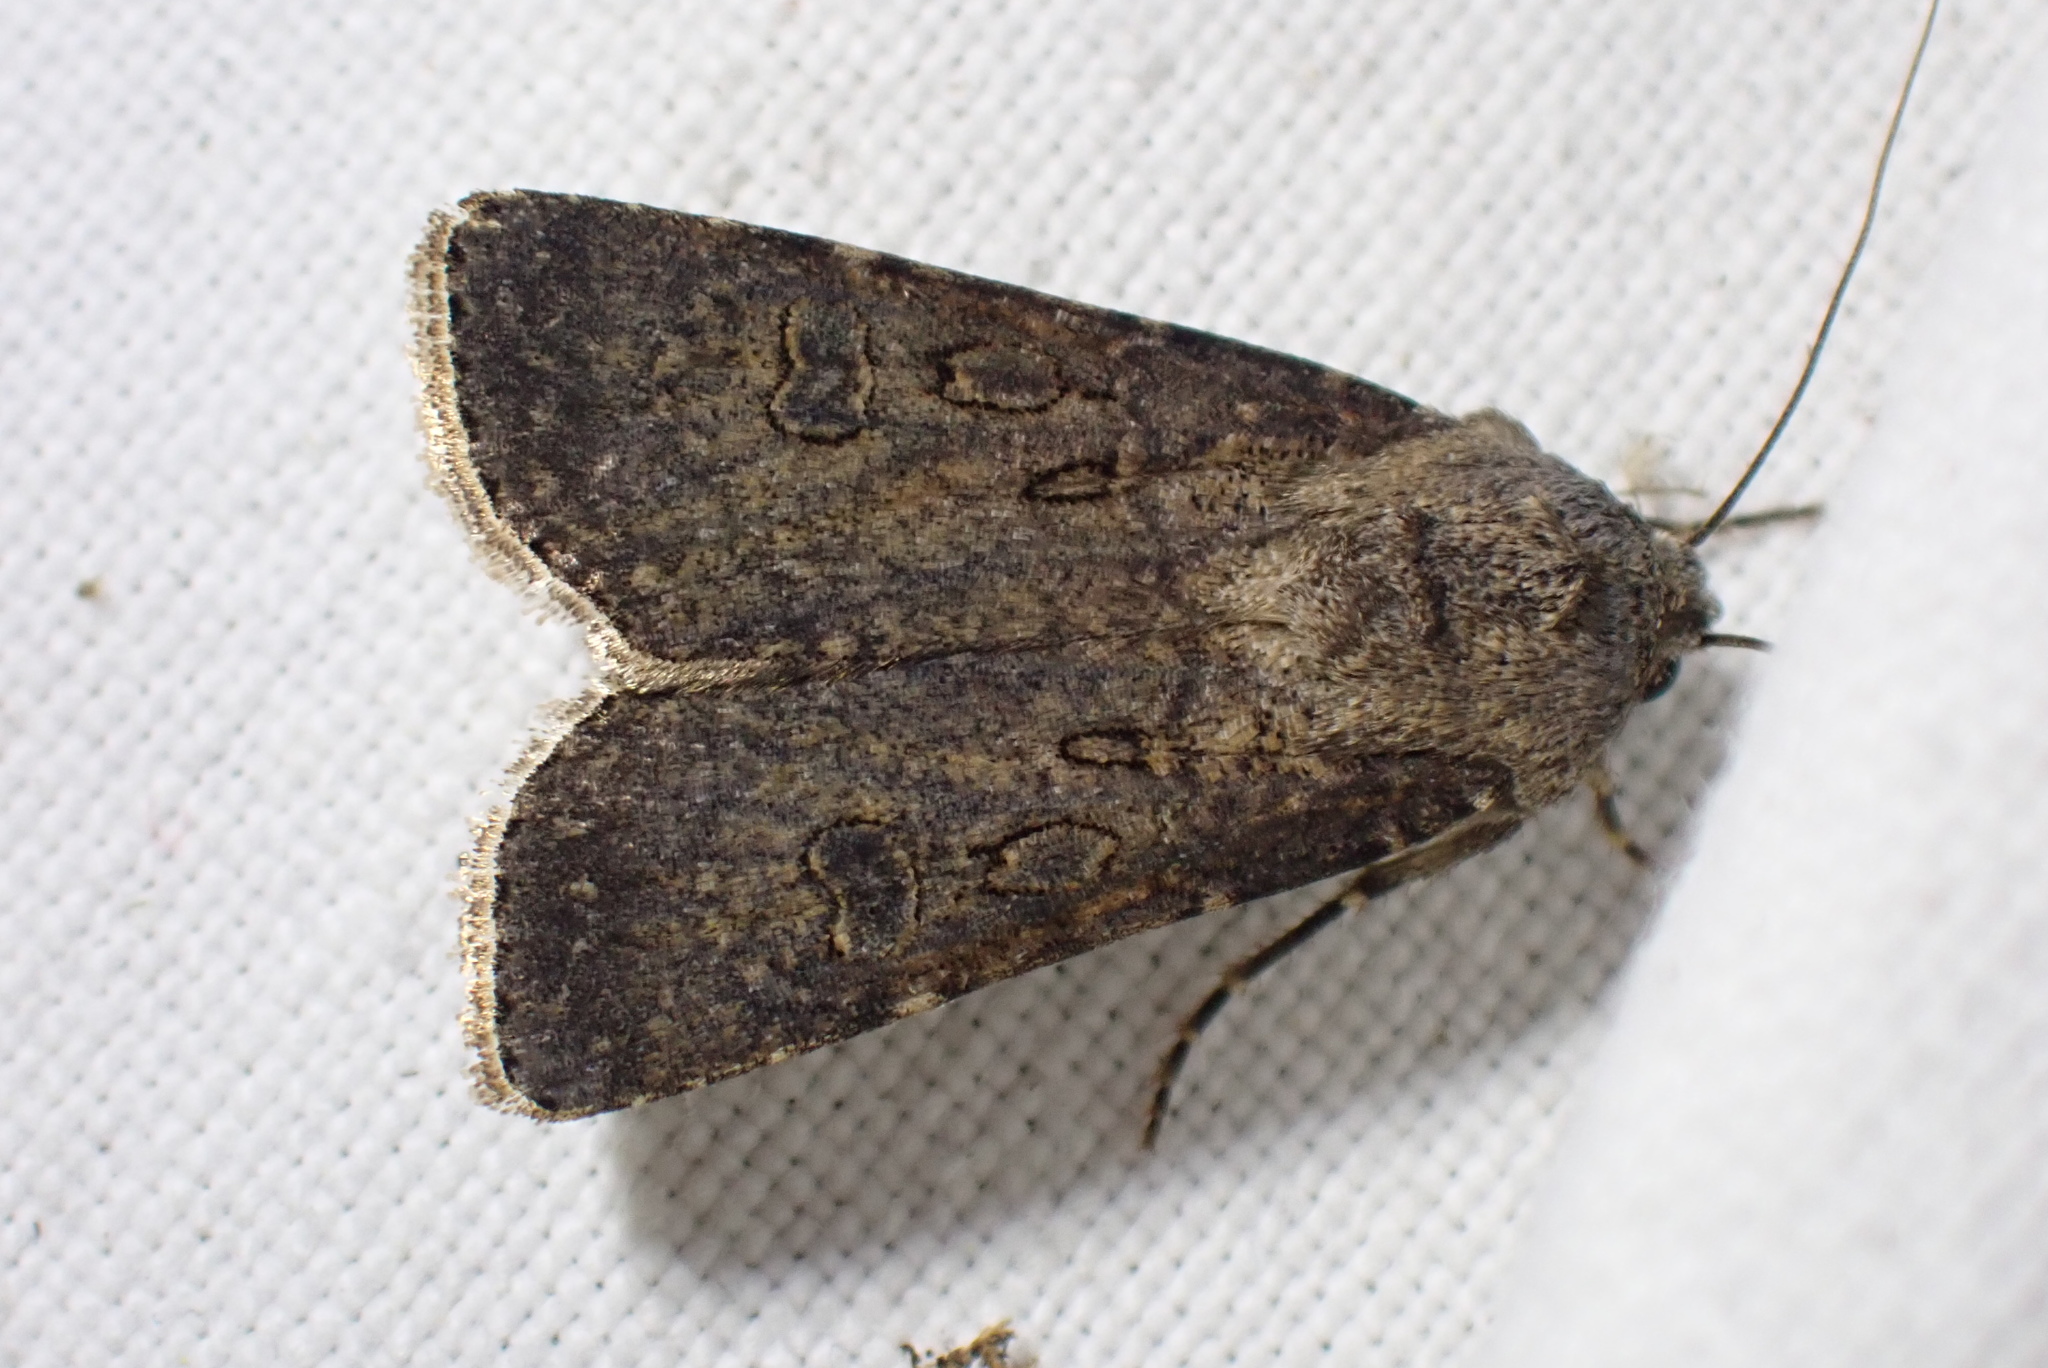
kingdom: Animalia
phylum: Arthropoda
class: Insecta
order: Lepidoptera
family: Noctuidae
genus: Agrotis
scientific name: Agrotis segetum
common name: Turnip moth
